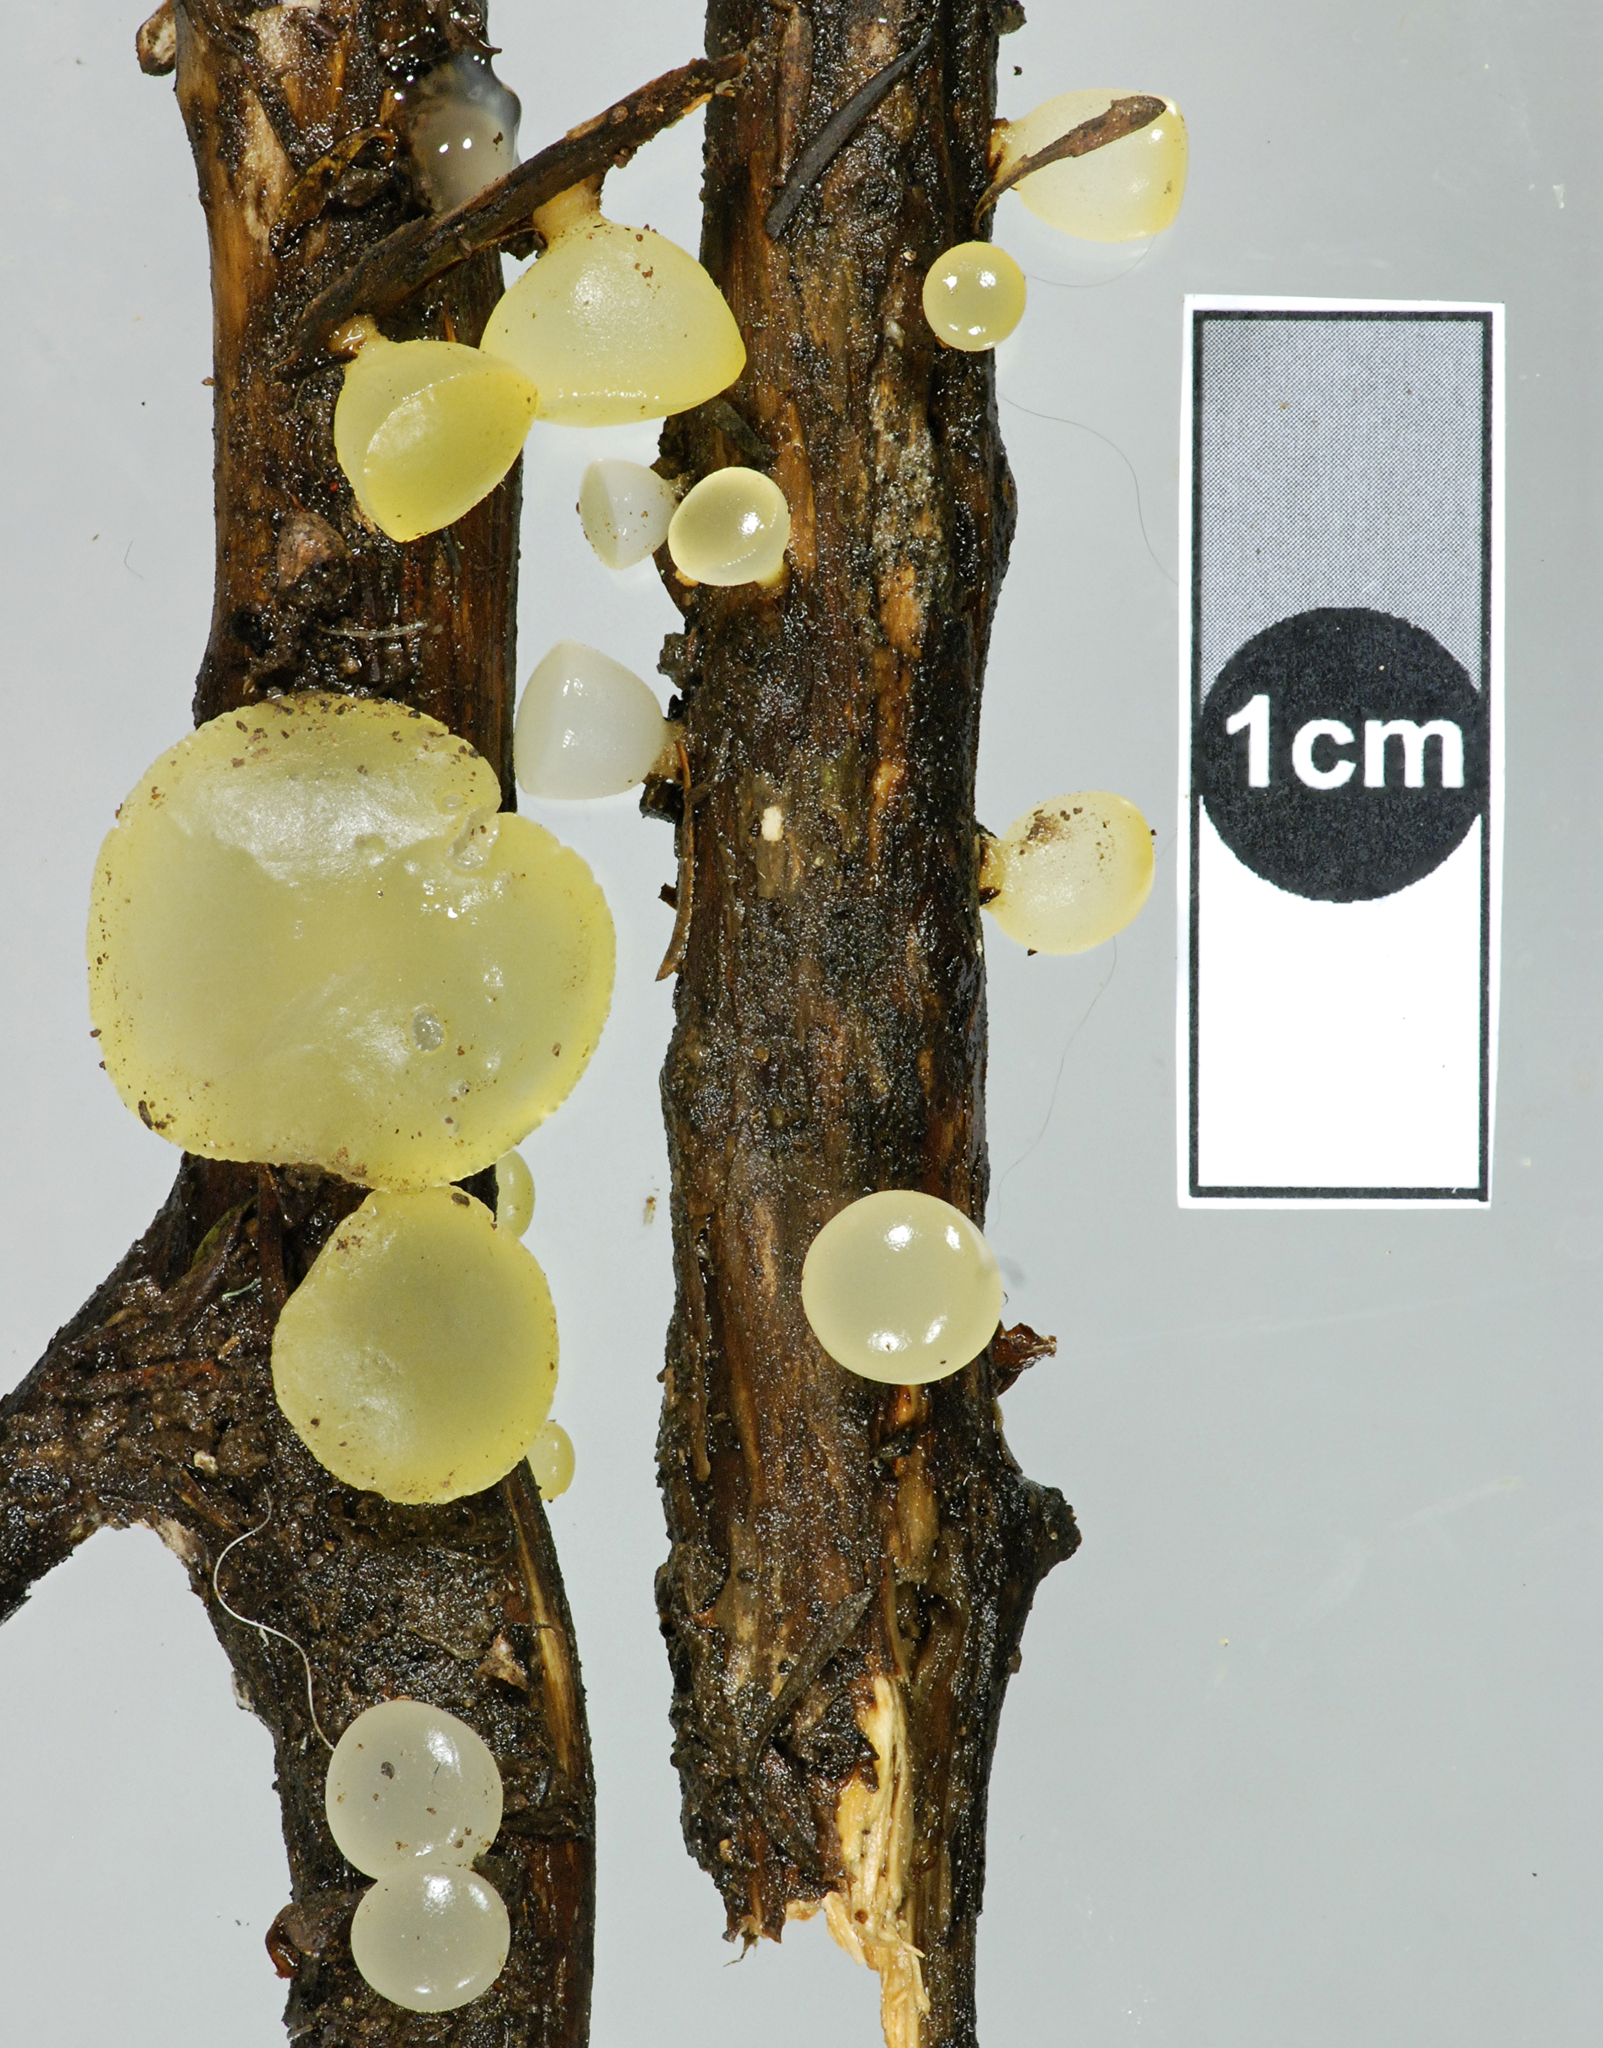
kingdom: Fungi
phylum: Basidiomycota
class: Dacrymycetes
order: Dacrymycetales
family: Dacrymycetaceae
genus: Heterotextus
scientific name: Heterotextus miltinus
